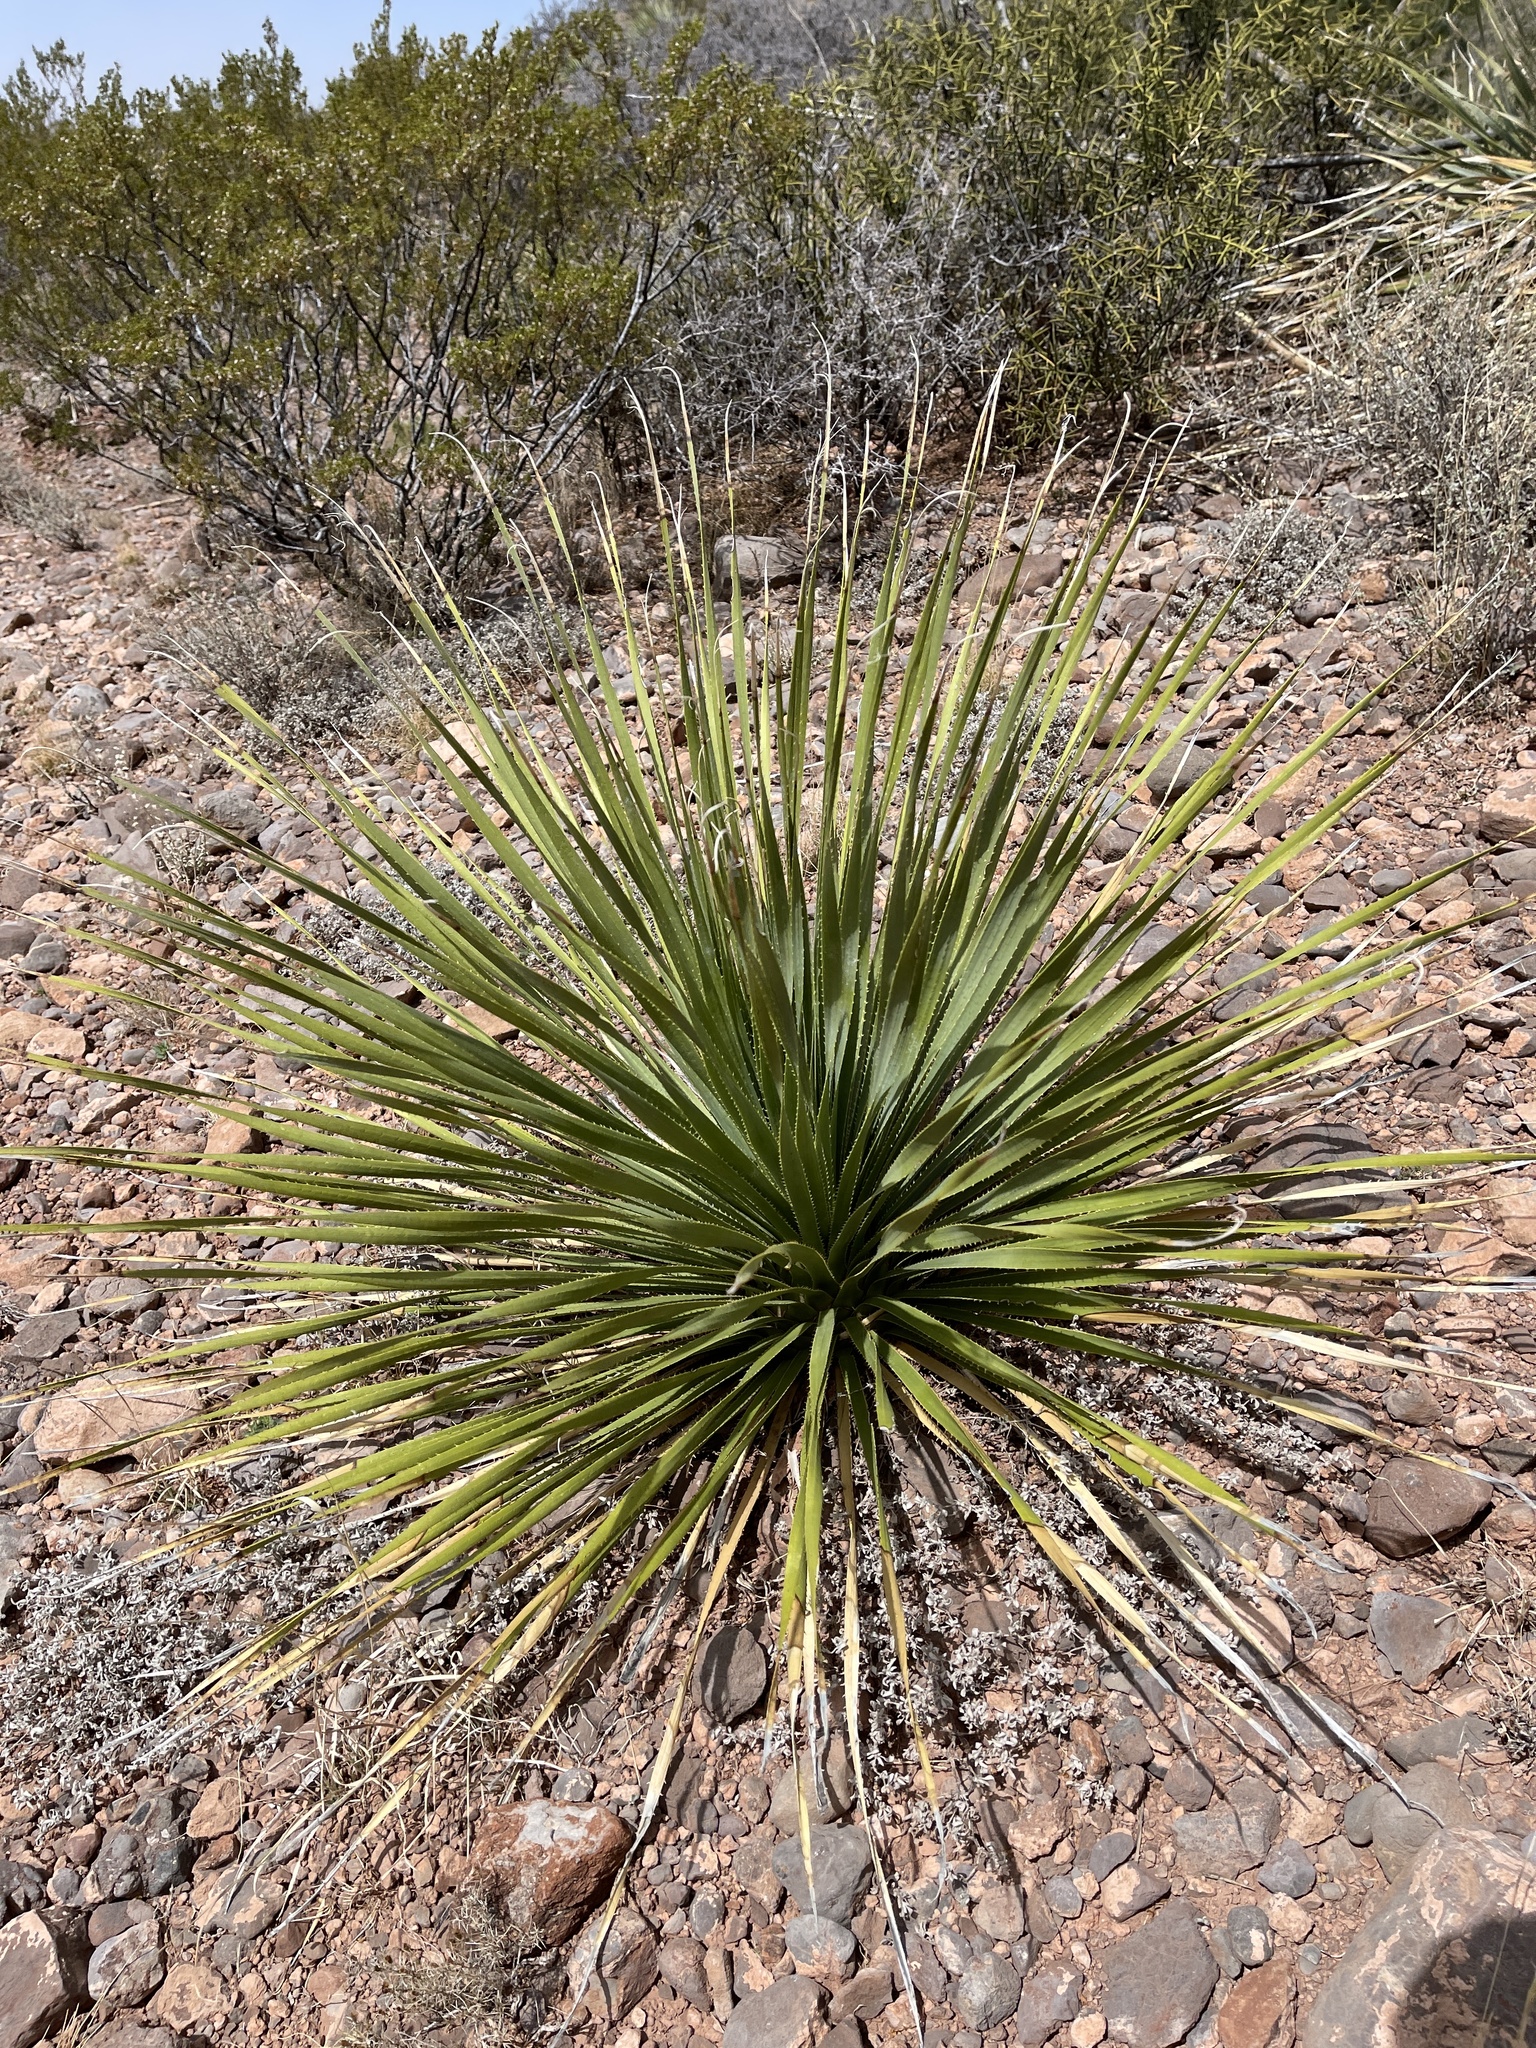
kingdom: Plantae
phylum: Tracheophyta
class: Liliopsida
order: Asparagales
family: Asparagaceae
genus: Dasylirion
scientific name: Dasylirion wheeleri
